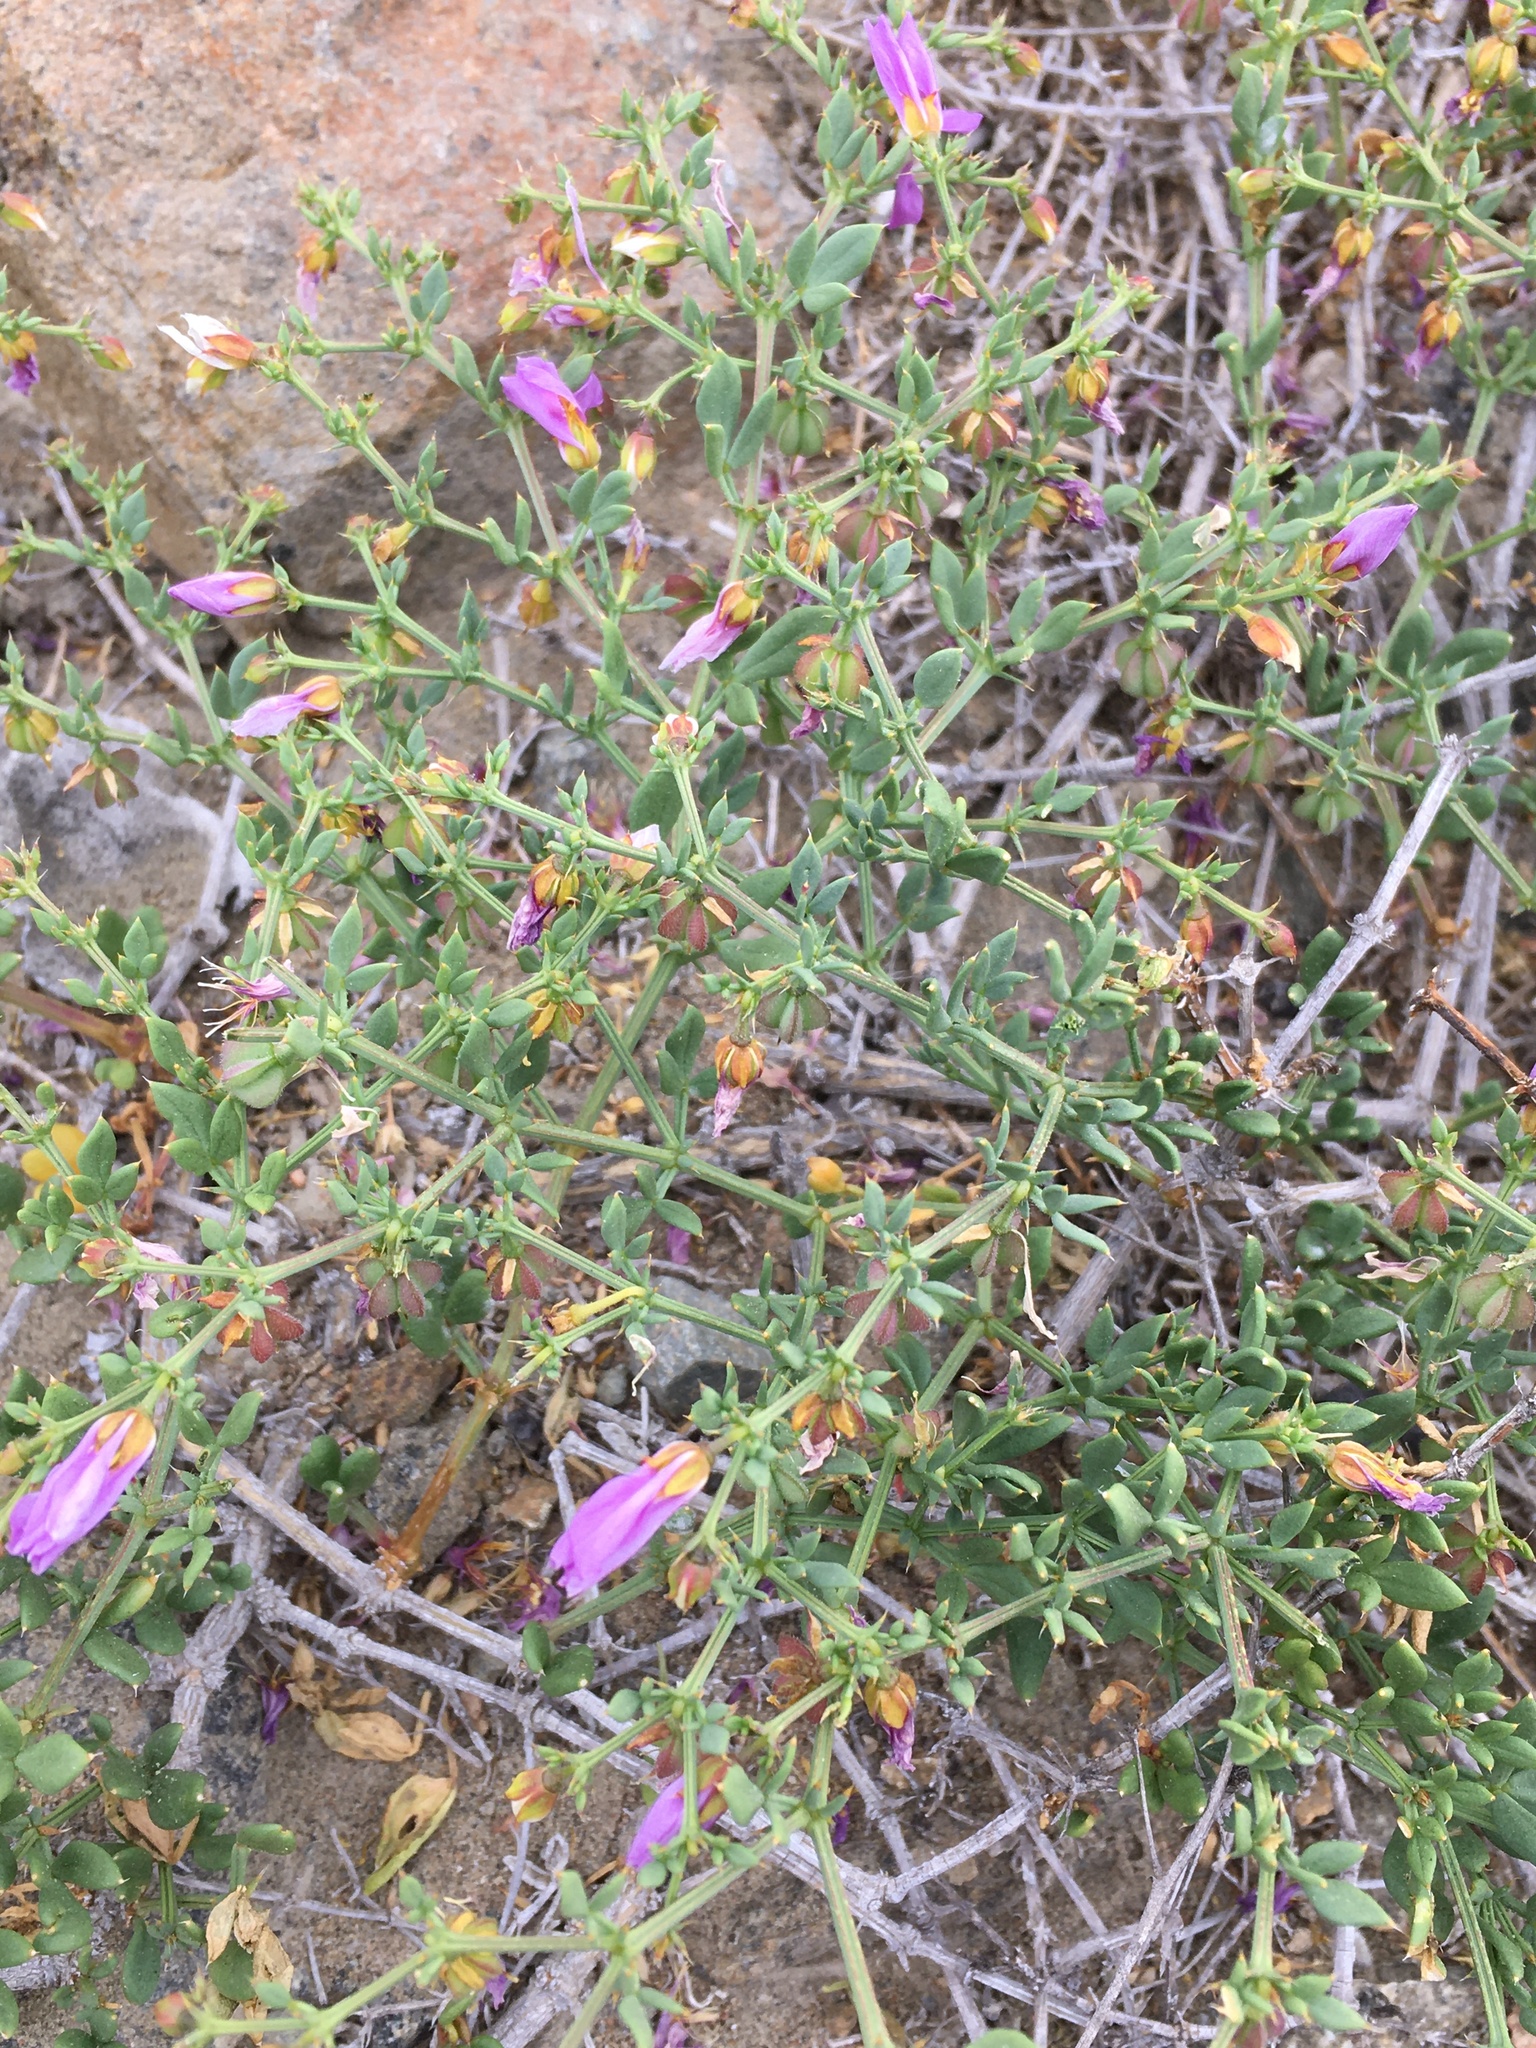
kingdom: Plantae
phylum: Tracheophyta
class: Magnoliopsida
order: Zygophyllales
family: Zygophyllaceae
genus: Fagonia
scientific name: Fagonia chilensis
